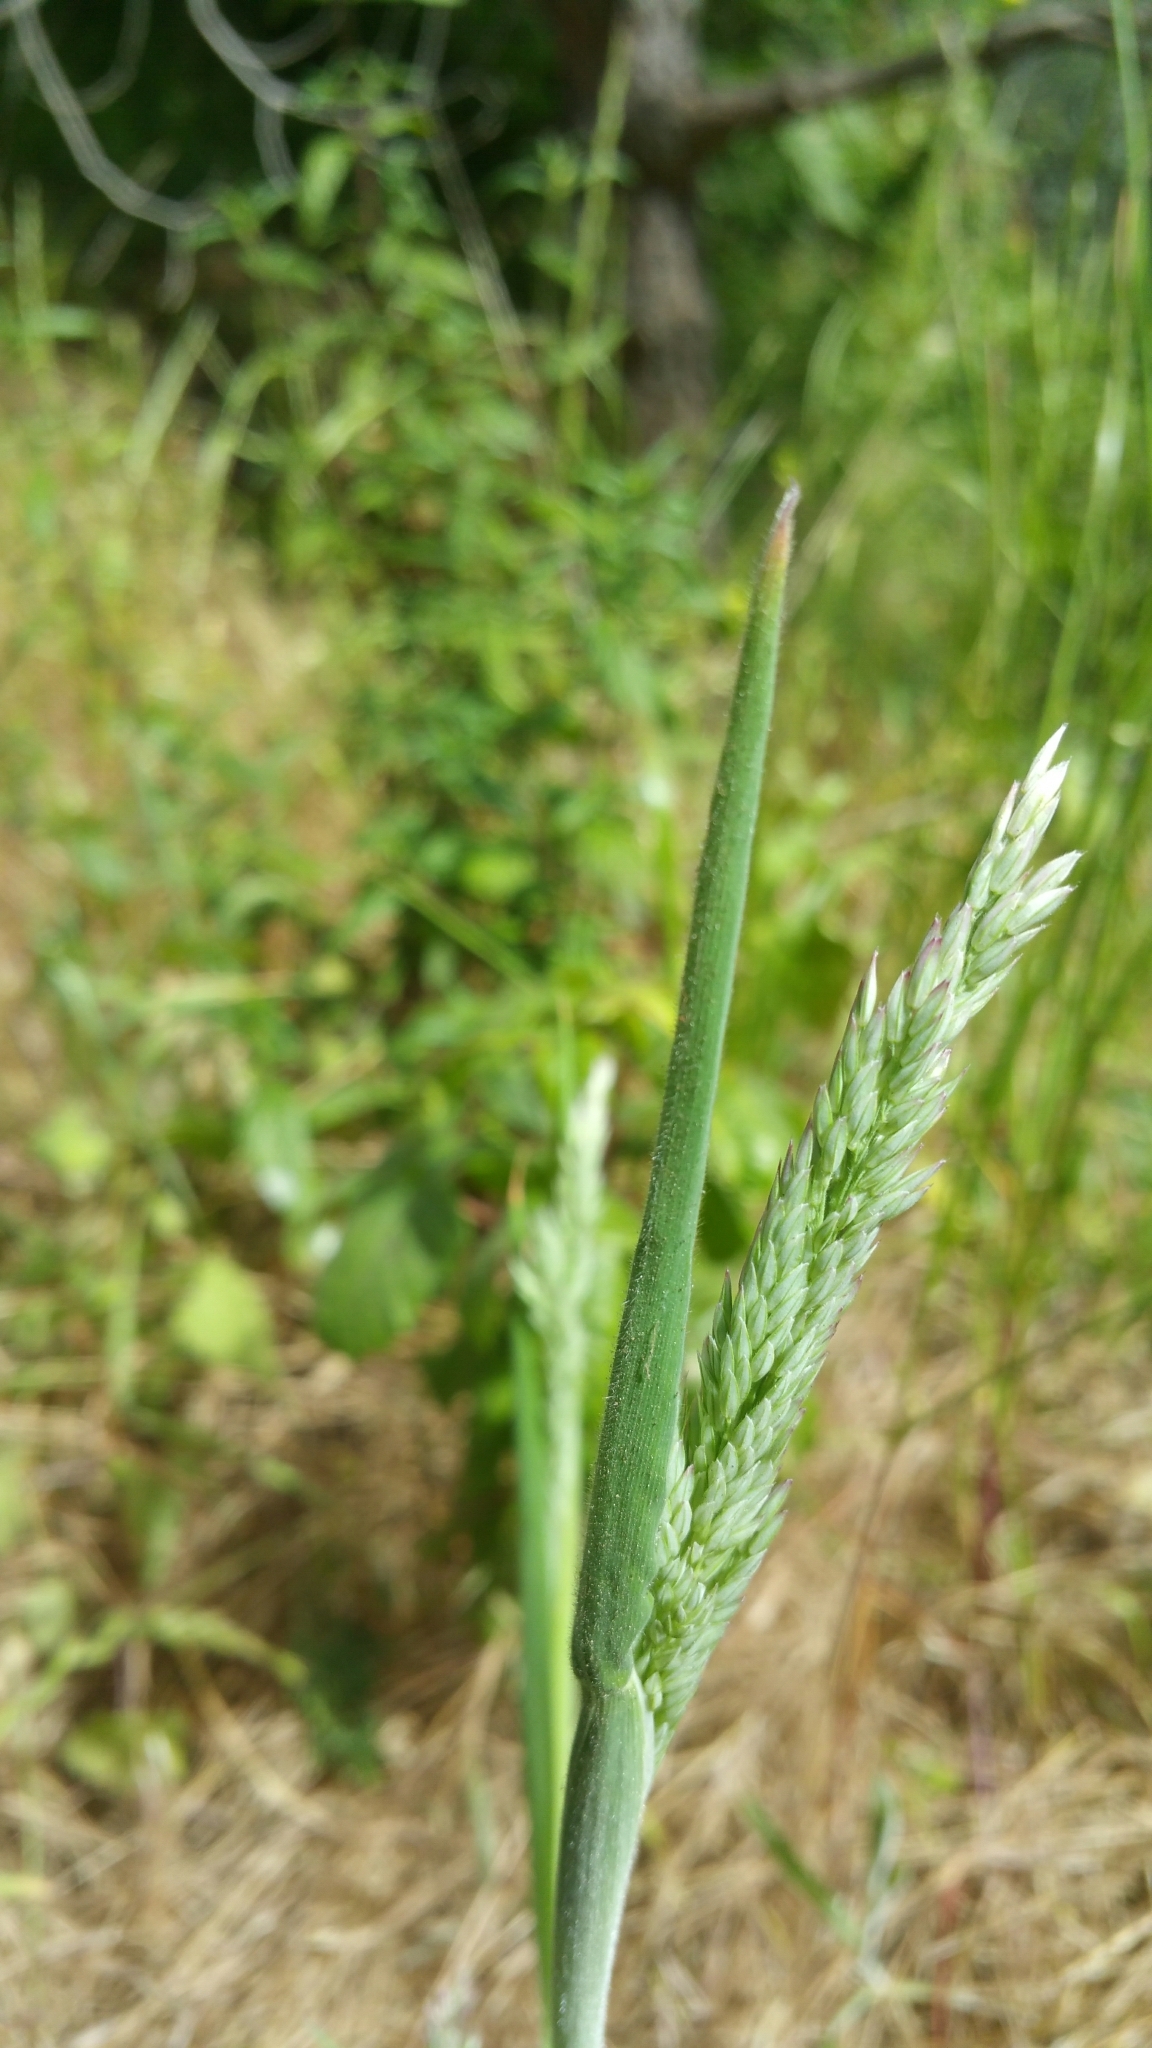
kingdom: Plantae
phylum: Tracheophyta
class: Liliopsida
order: Poales
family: Poaceae
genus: Holcus
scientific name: Holcus lanatus
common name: Yorkshire-fog
